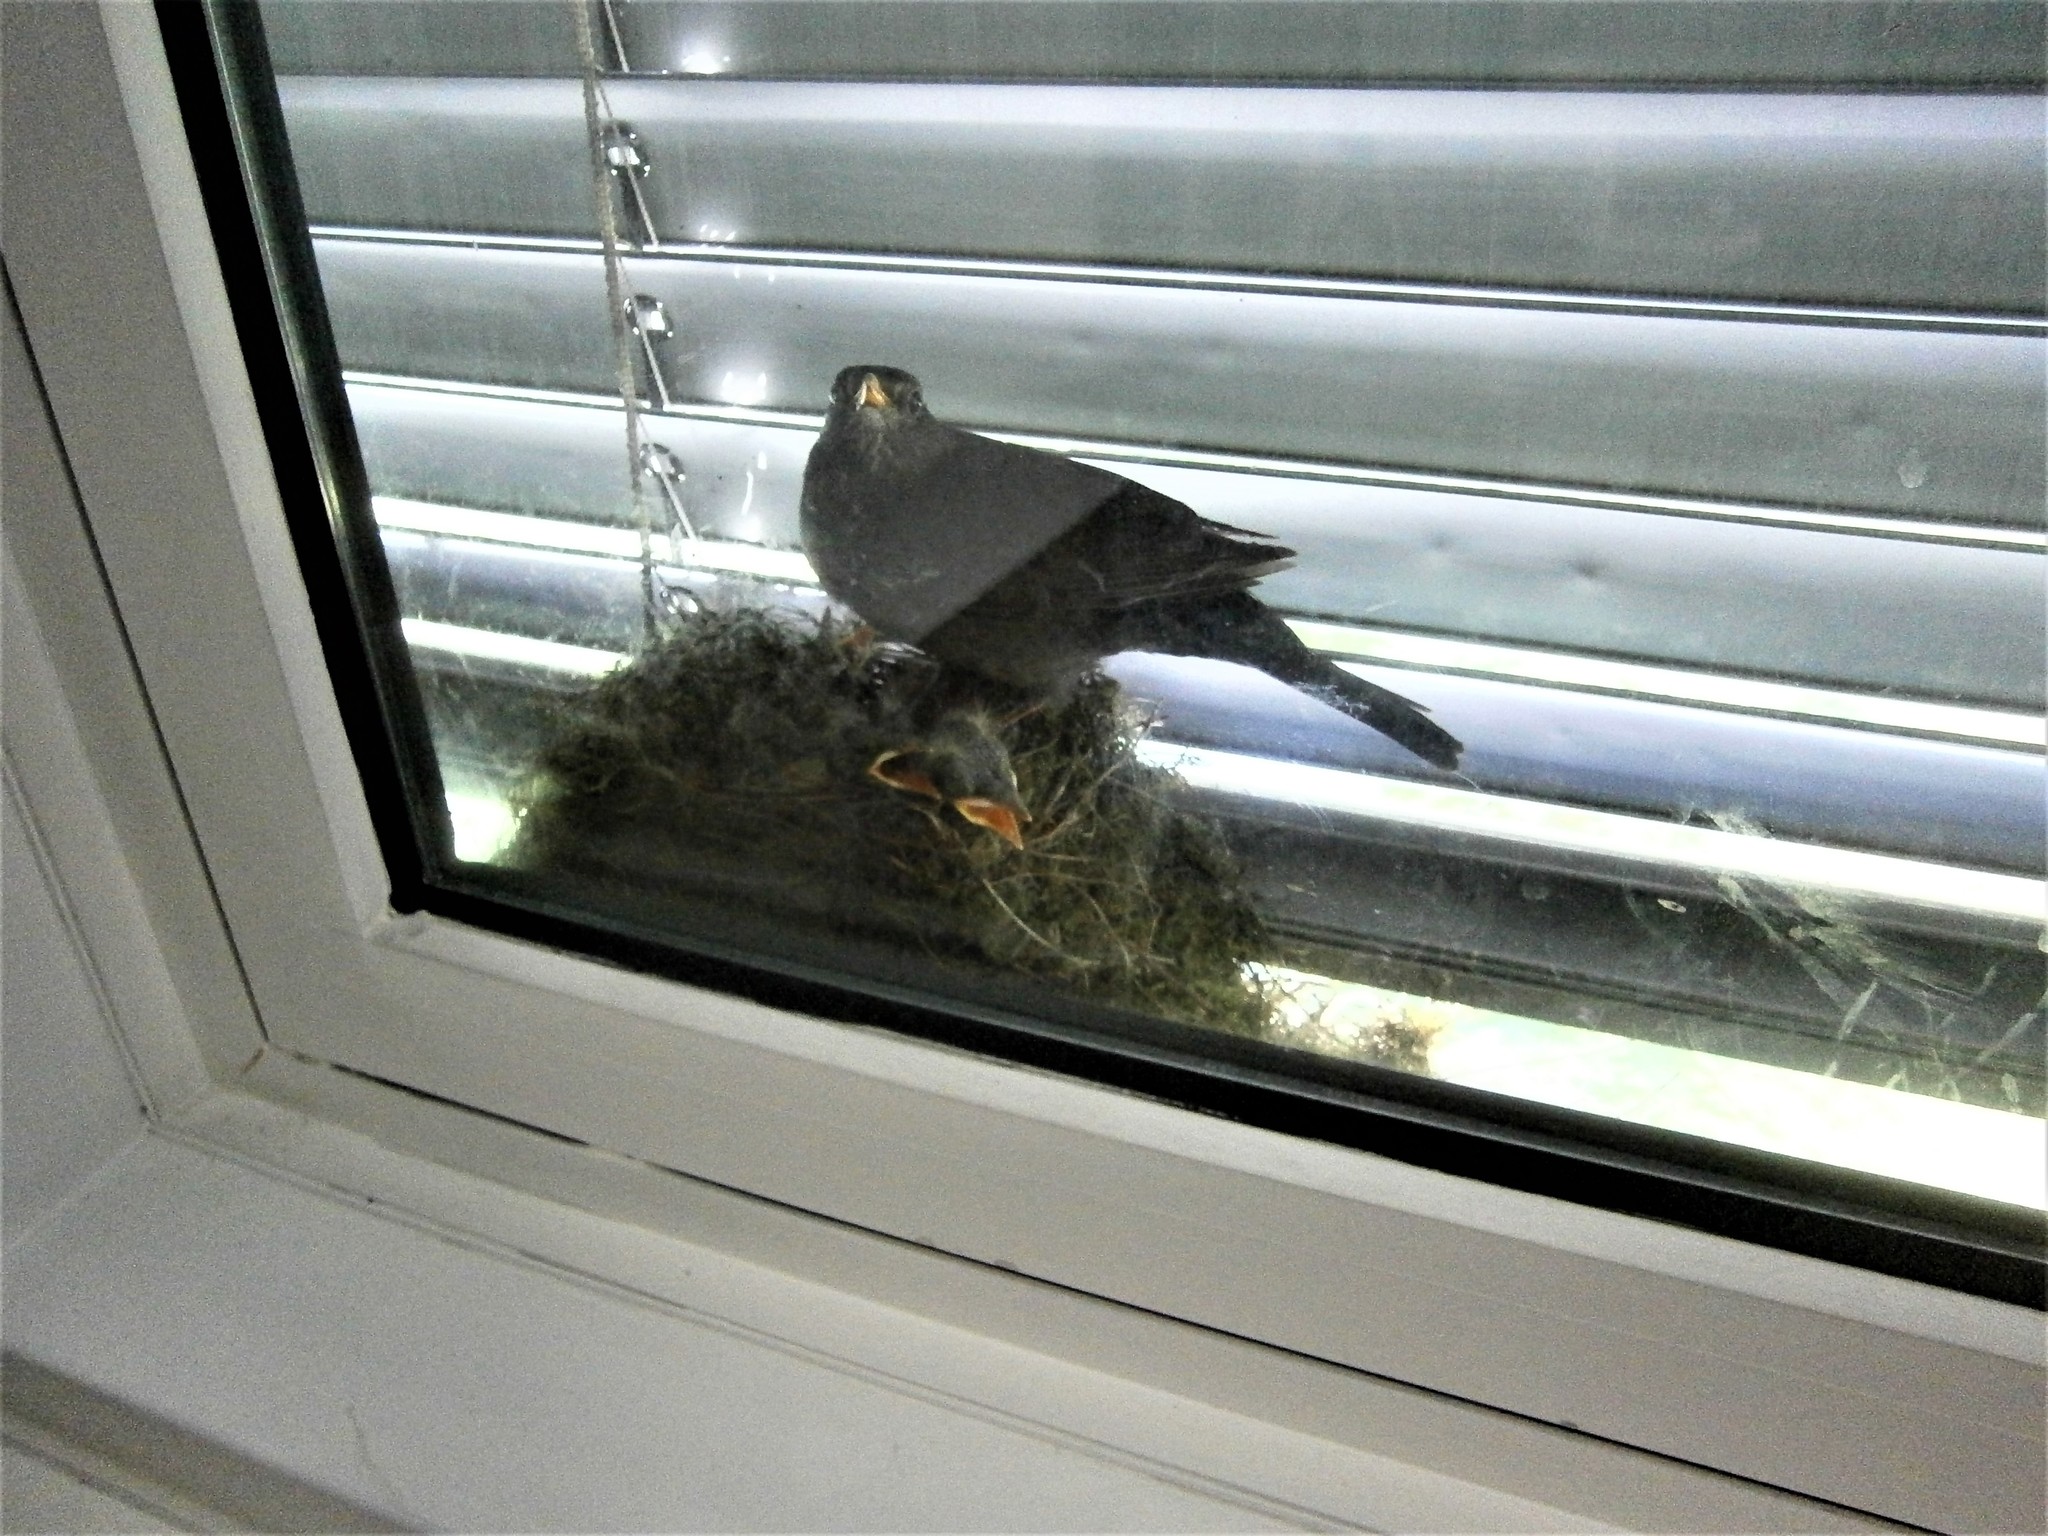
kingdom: Animalia
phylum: Chordata
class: Aves
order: Passeriformes
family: Turdidae
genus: Turdus
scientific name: Turdus merula
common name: Common blackbird
